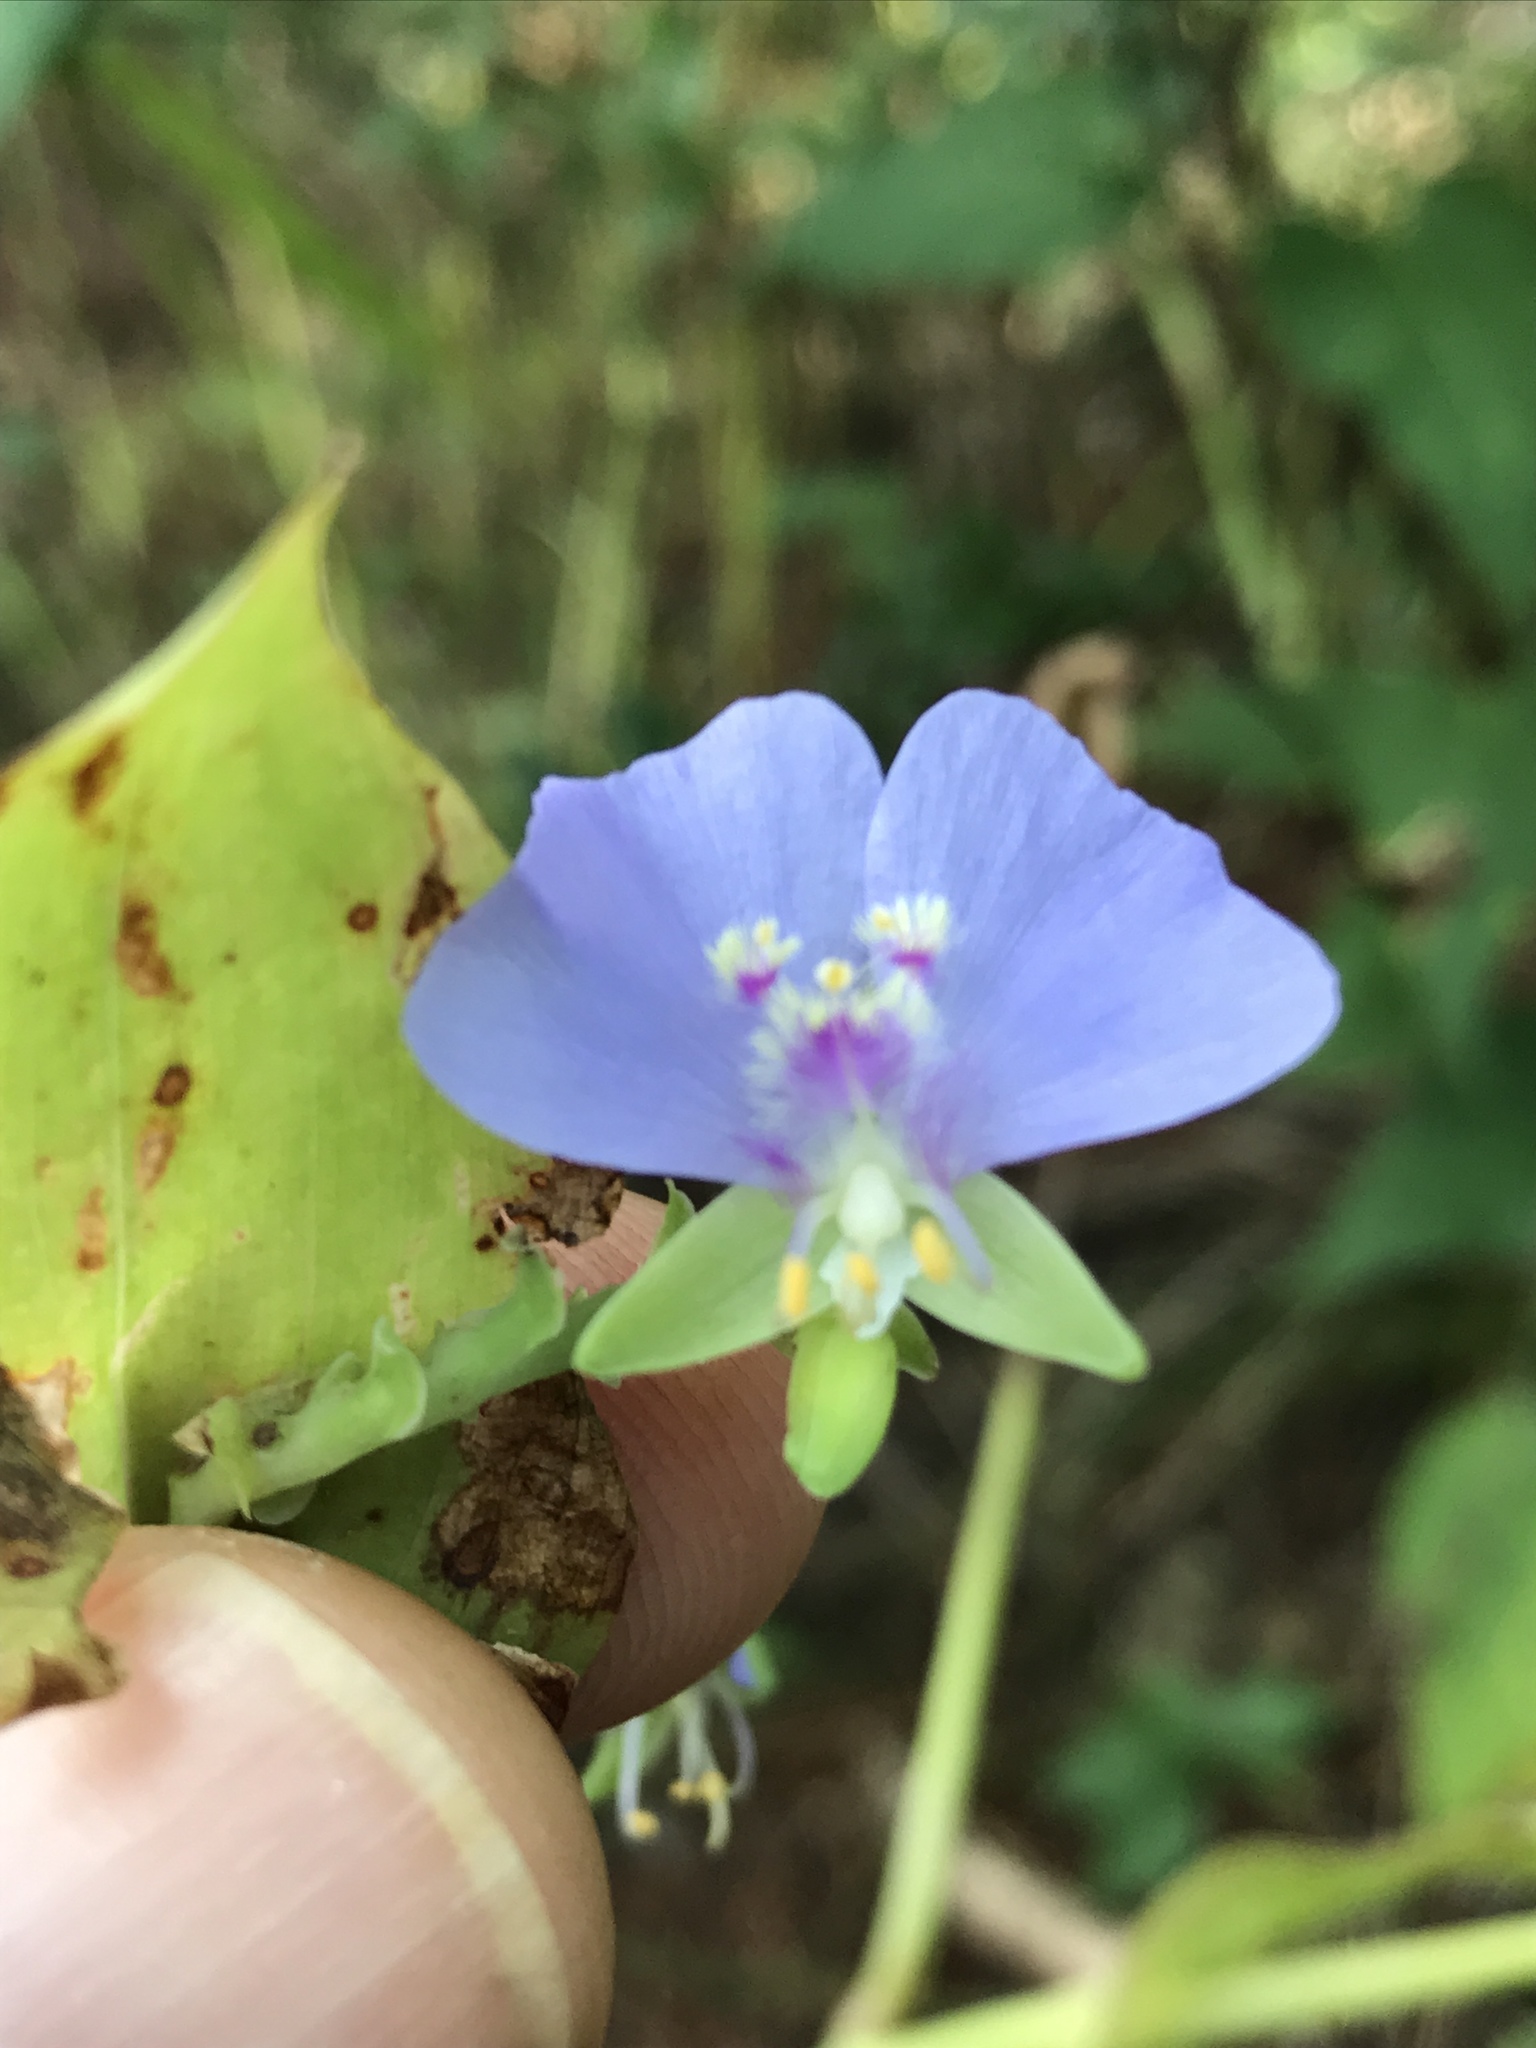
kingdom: Plantae
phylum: Tracheophyta
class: Liliopsida
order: Commelinales
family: Commelinaceae
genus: Tinantia
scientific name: Tinantia anomala
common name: False dayflower
